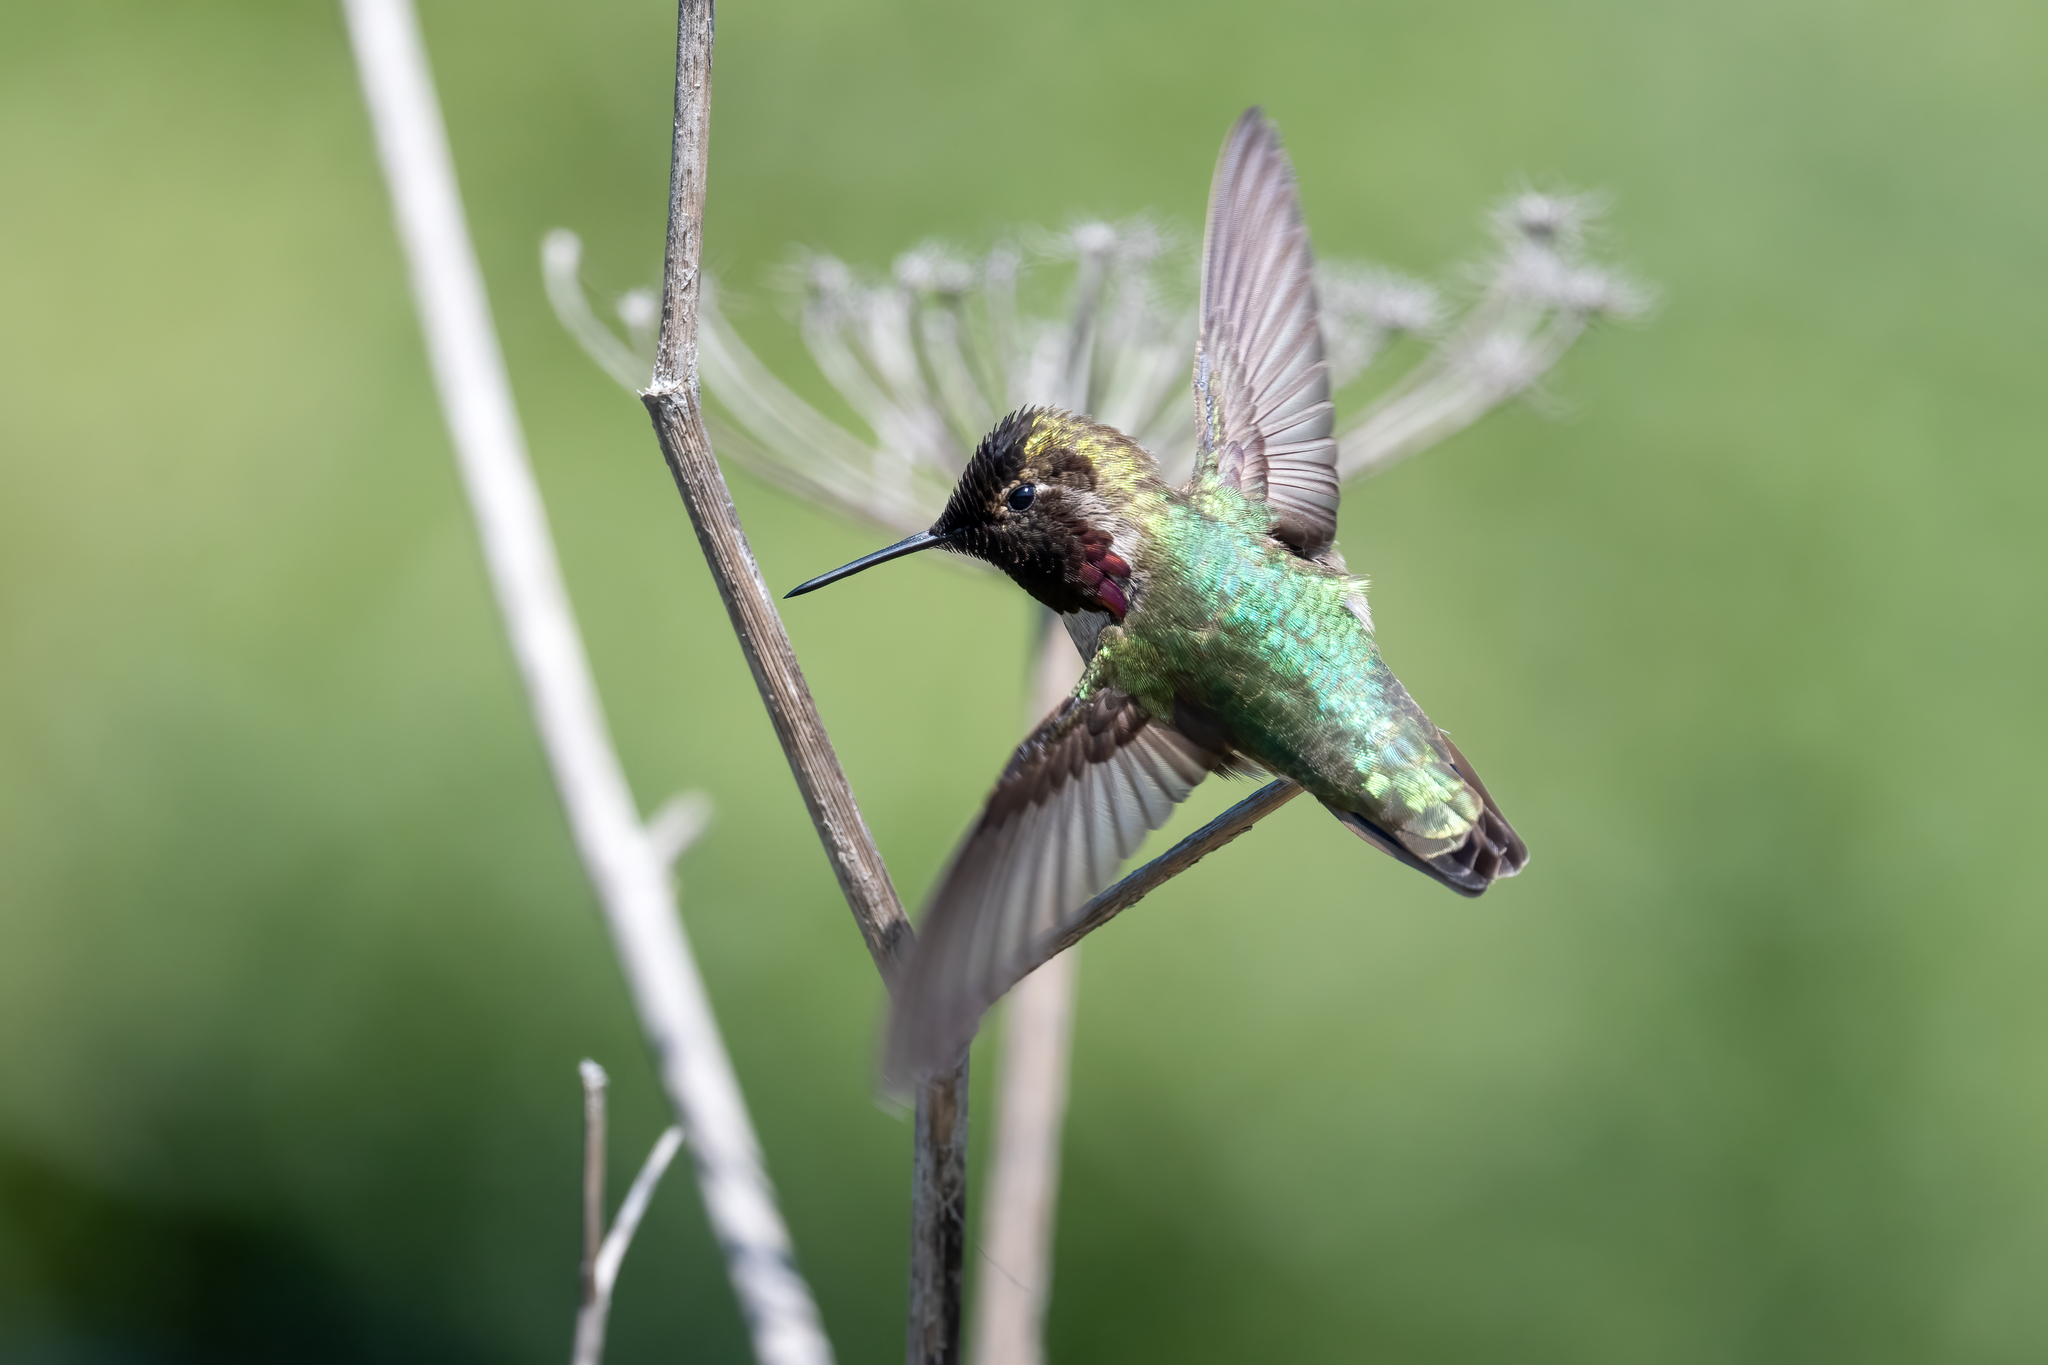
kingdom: Animalia
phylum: Chordata
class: Aves
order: Apodiformes
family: Trochilidae
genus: Calypte
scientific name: Calypte anna
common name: Anna's hummingbird
